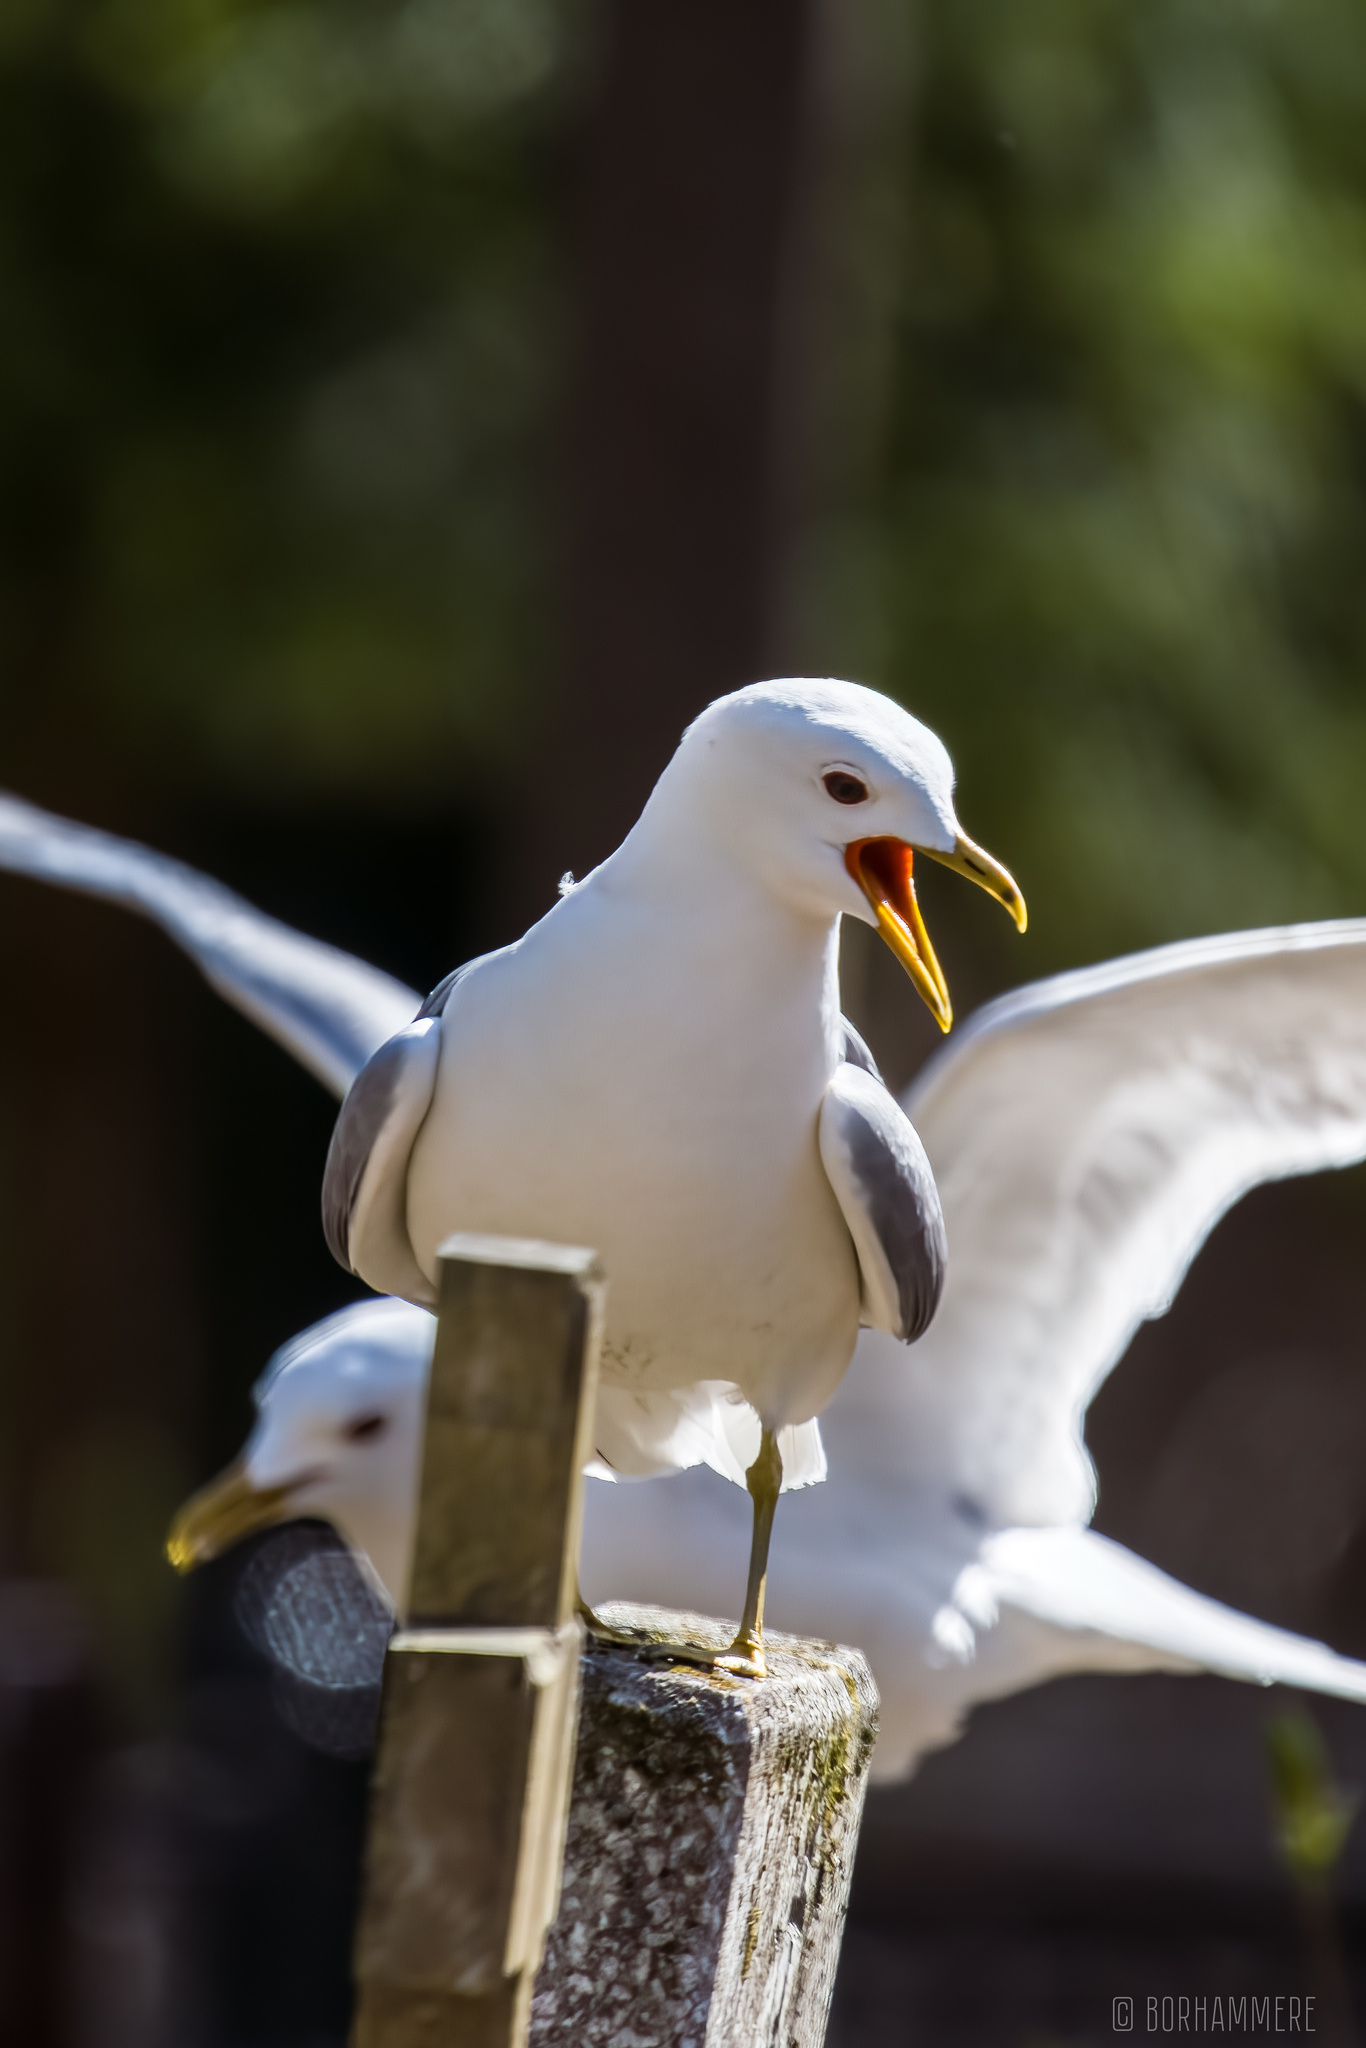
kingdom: Animalia
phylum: Chordata
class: Aves
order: Charadriiformes
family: Laridae
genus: Larus
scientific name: Larus canus
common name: Mew gull
